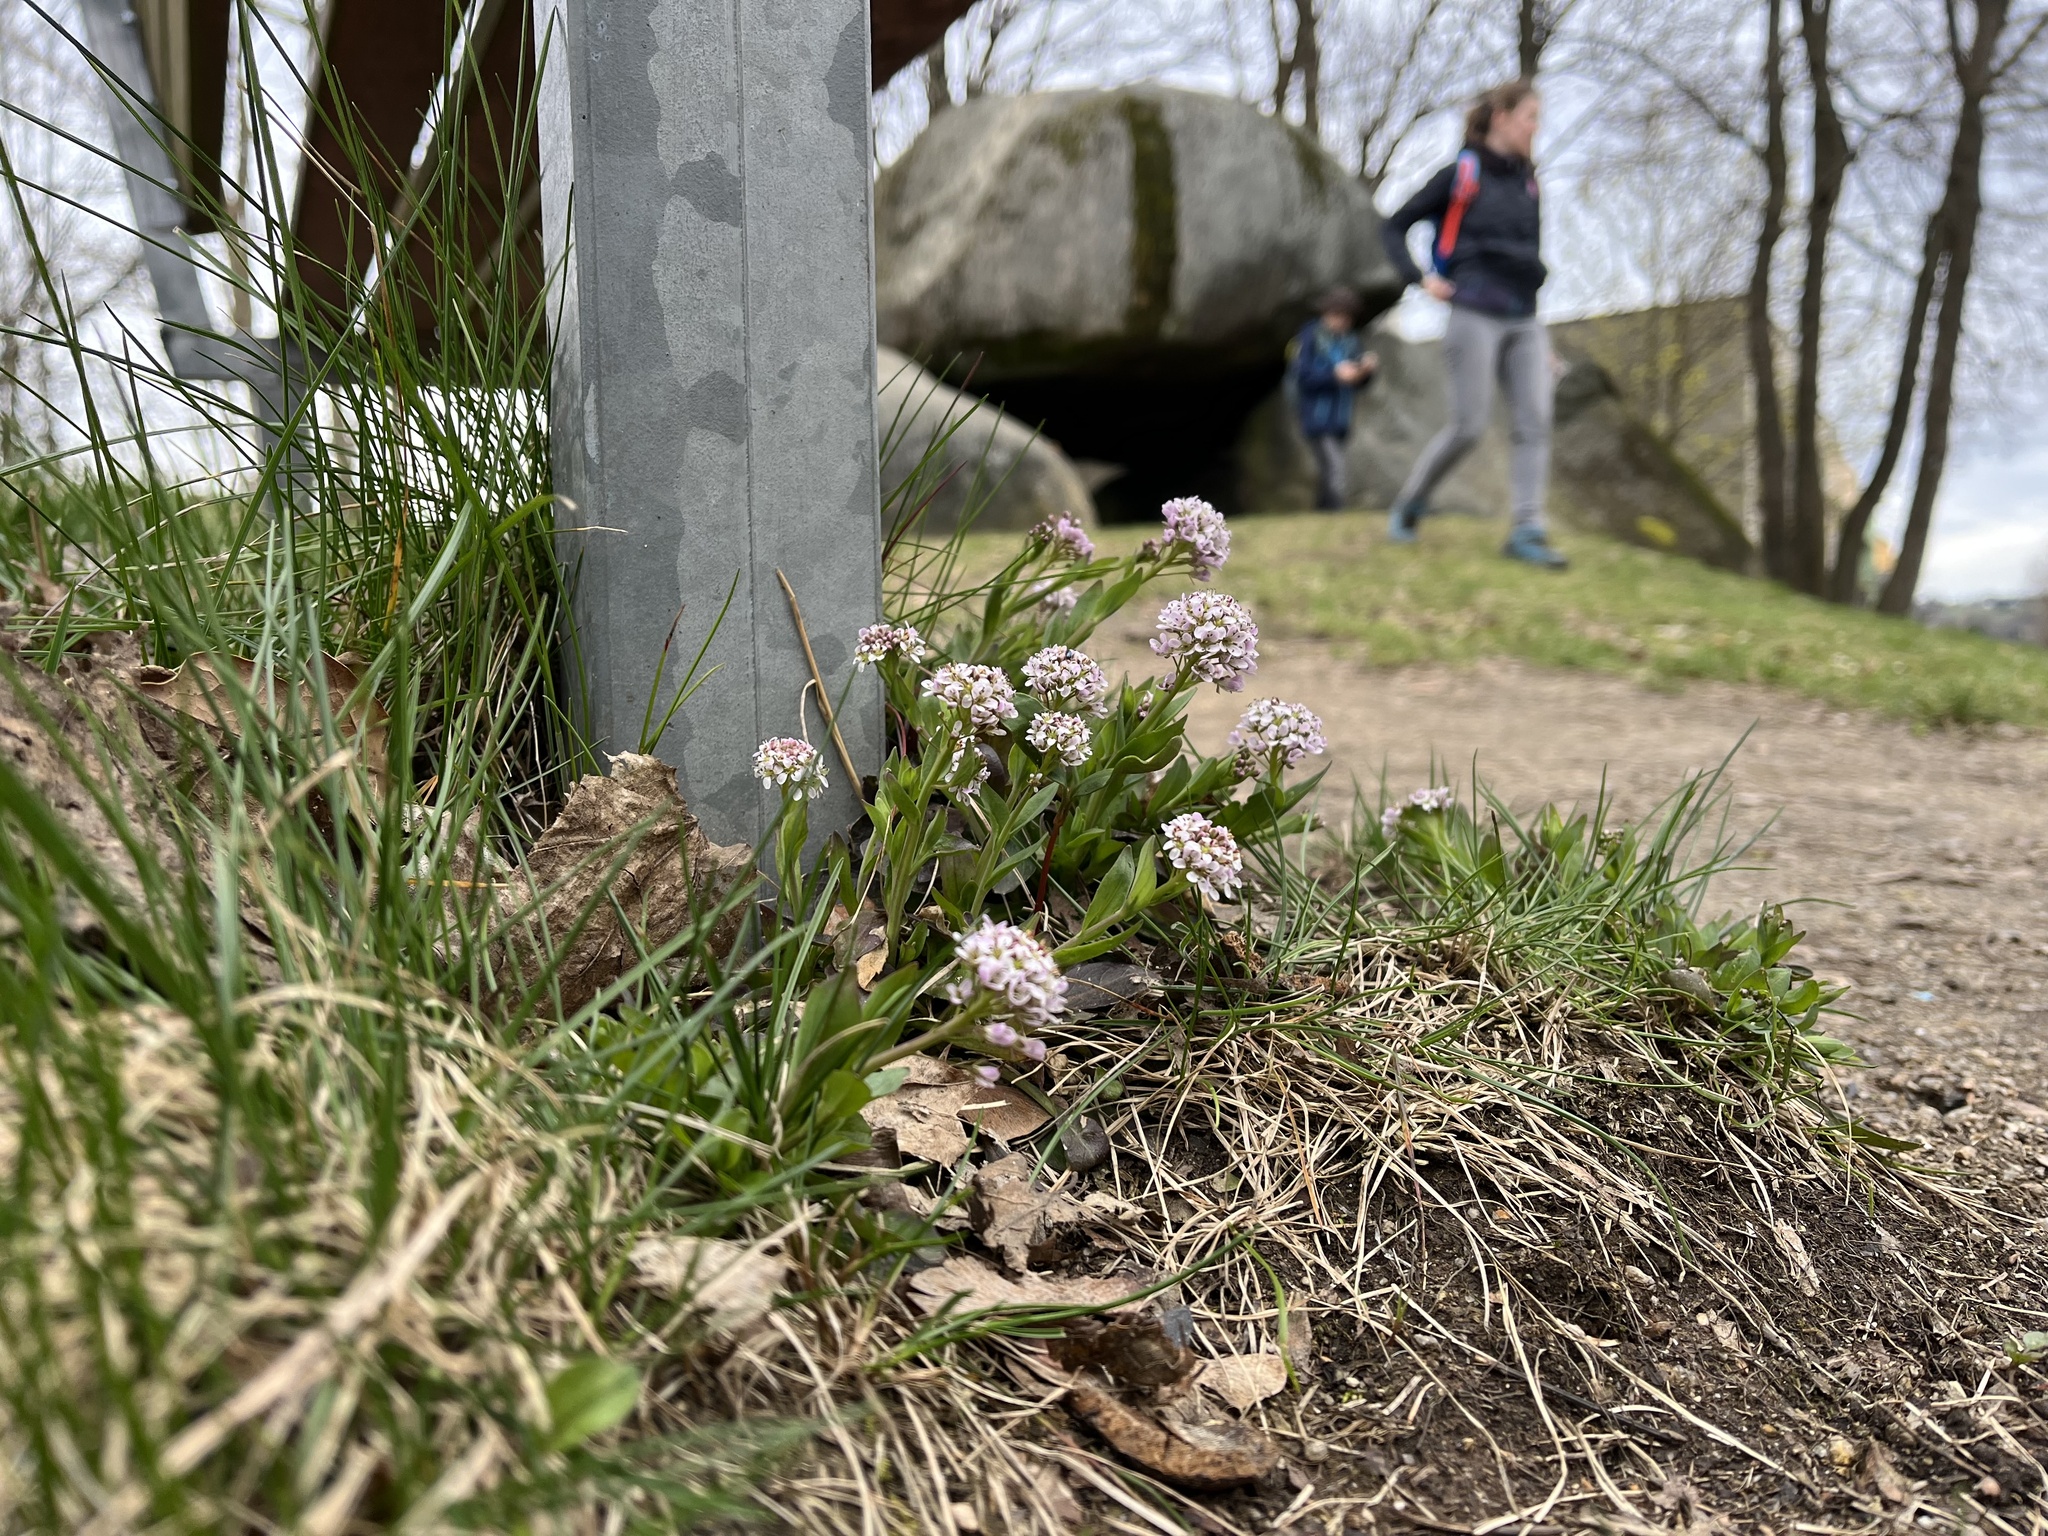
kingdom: Plantae
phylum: Tracheophyta
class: Magnoliopsida
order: Brassicales
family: Brassicaceae
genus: Noccaea
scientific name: Noccaea caerulescens
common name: Alpine pennycress
